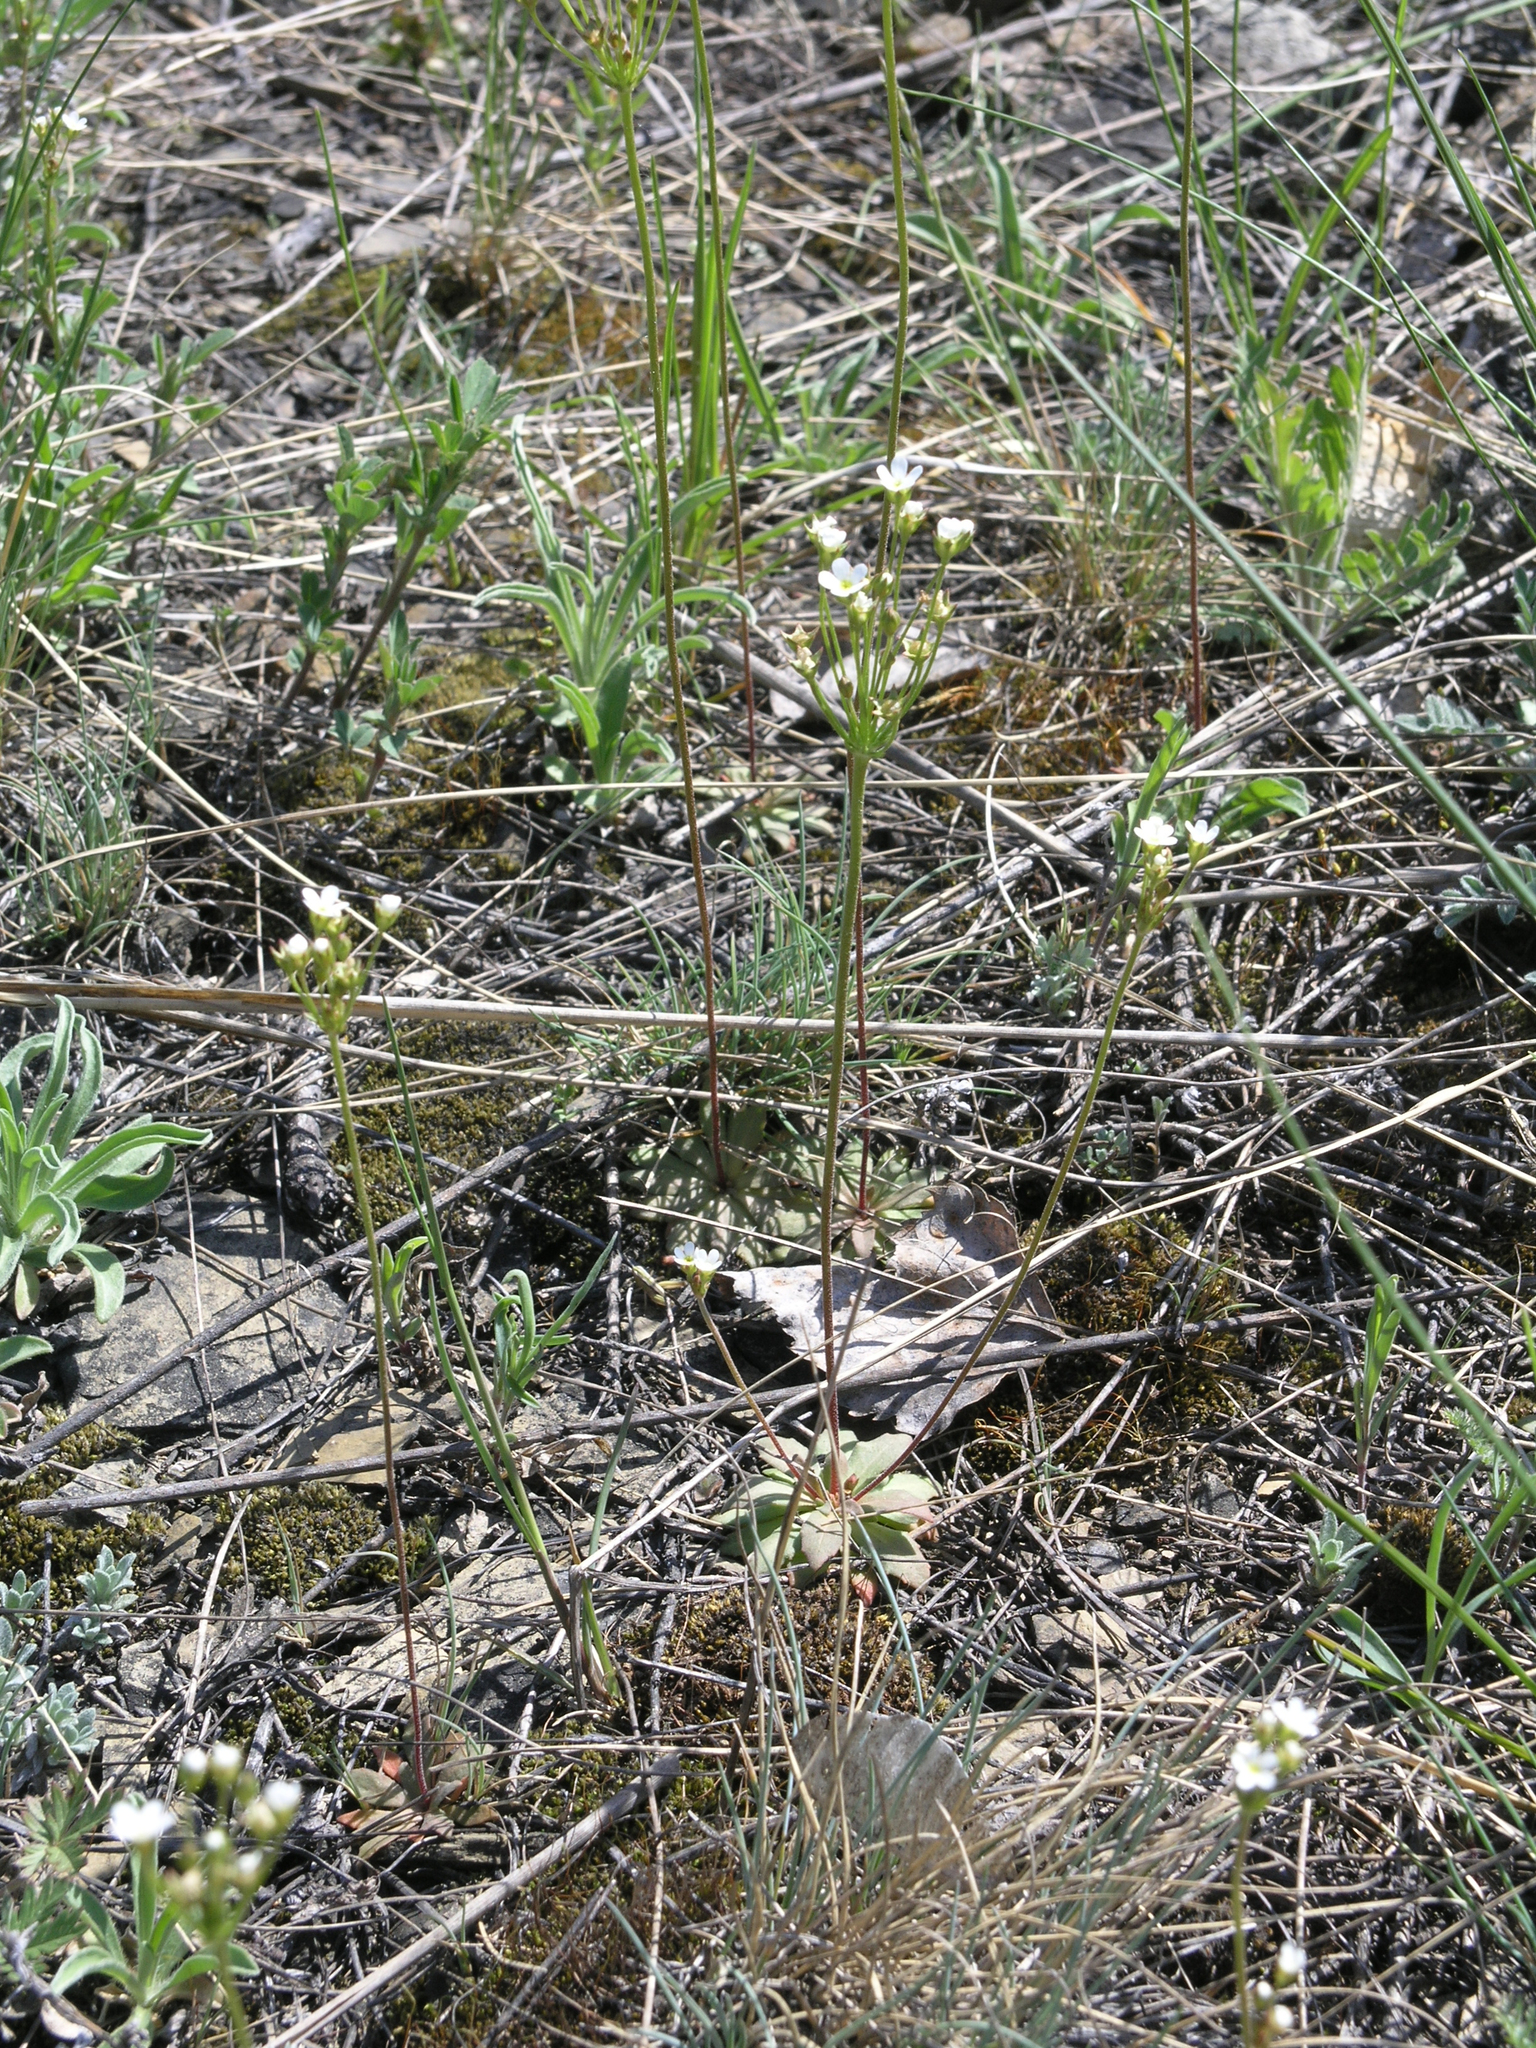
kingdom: Plantae
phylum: Tracheophyta
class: Magnoliopsida
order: Ericales
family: Primulaceae
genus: Androsace
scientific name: Androsace septentrionalis
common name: Hairy northern fairy-candelabra
